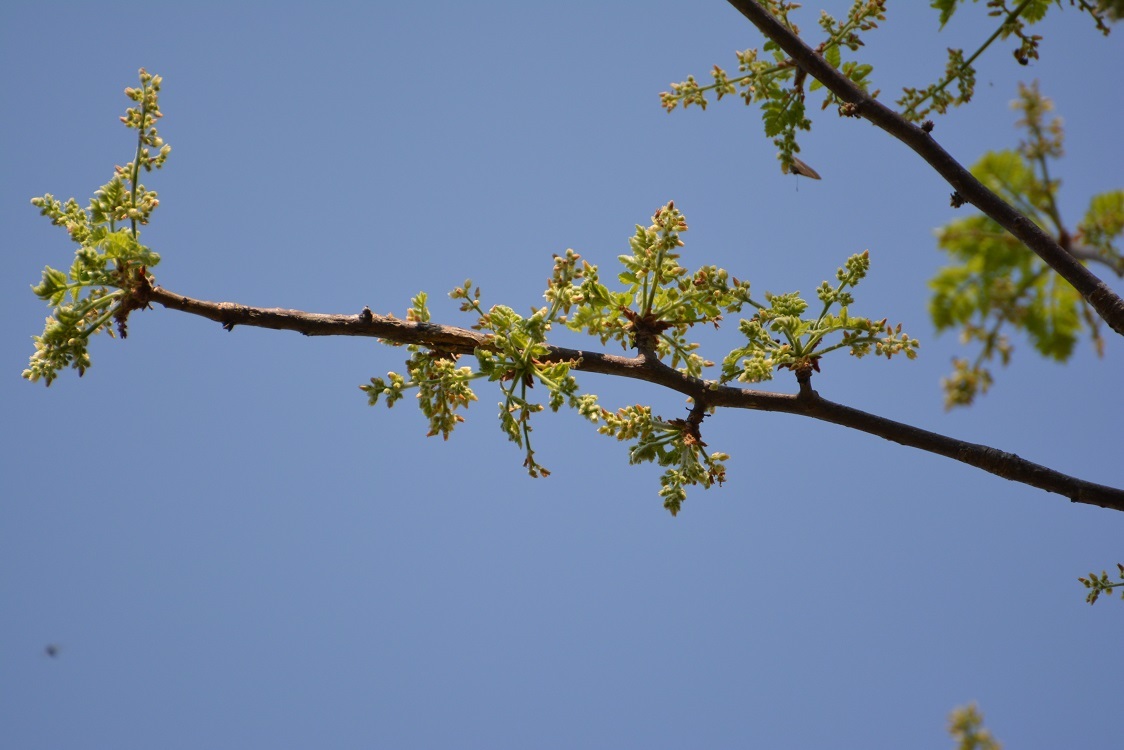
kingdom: Plantae
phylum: Tracheophyta
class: Magnoliopsida
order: Sapindales
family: Burseraceae
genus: Bursera
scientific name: Bursera bipinnata
